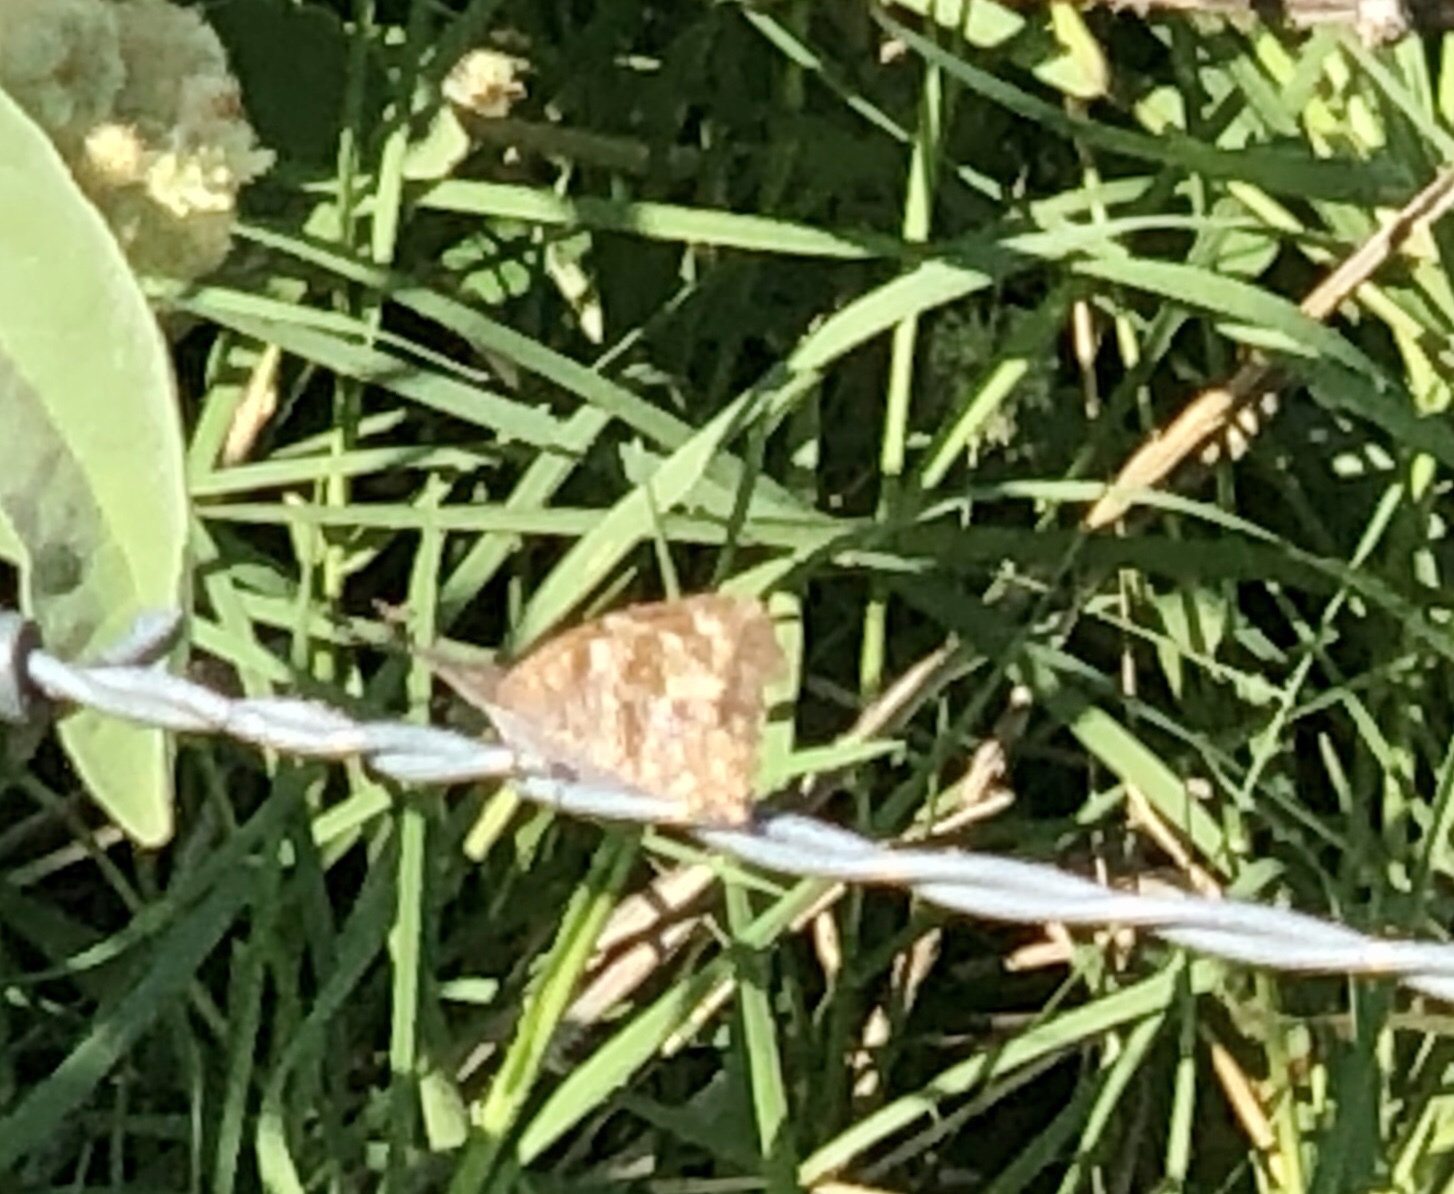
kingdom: Animalia
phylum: Arthropoda
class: Insecta
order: Lepidoptera
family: Nymphalidae
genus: Libytheana
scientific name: Libytheana carinenta
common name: American snout
